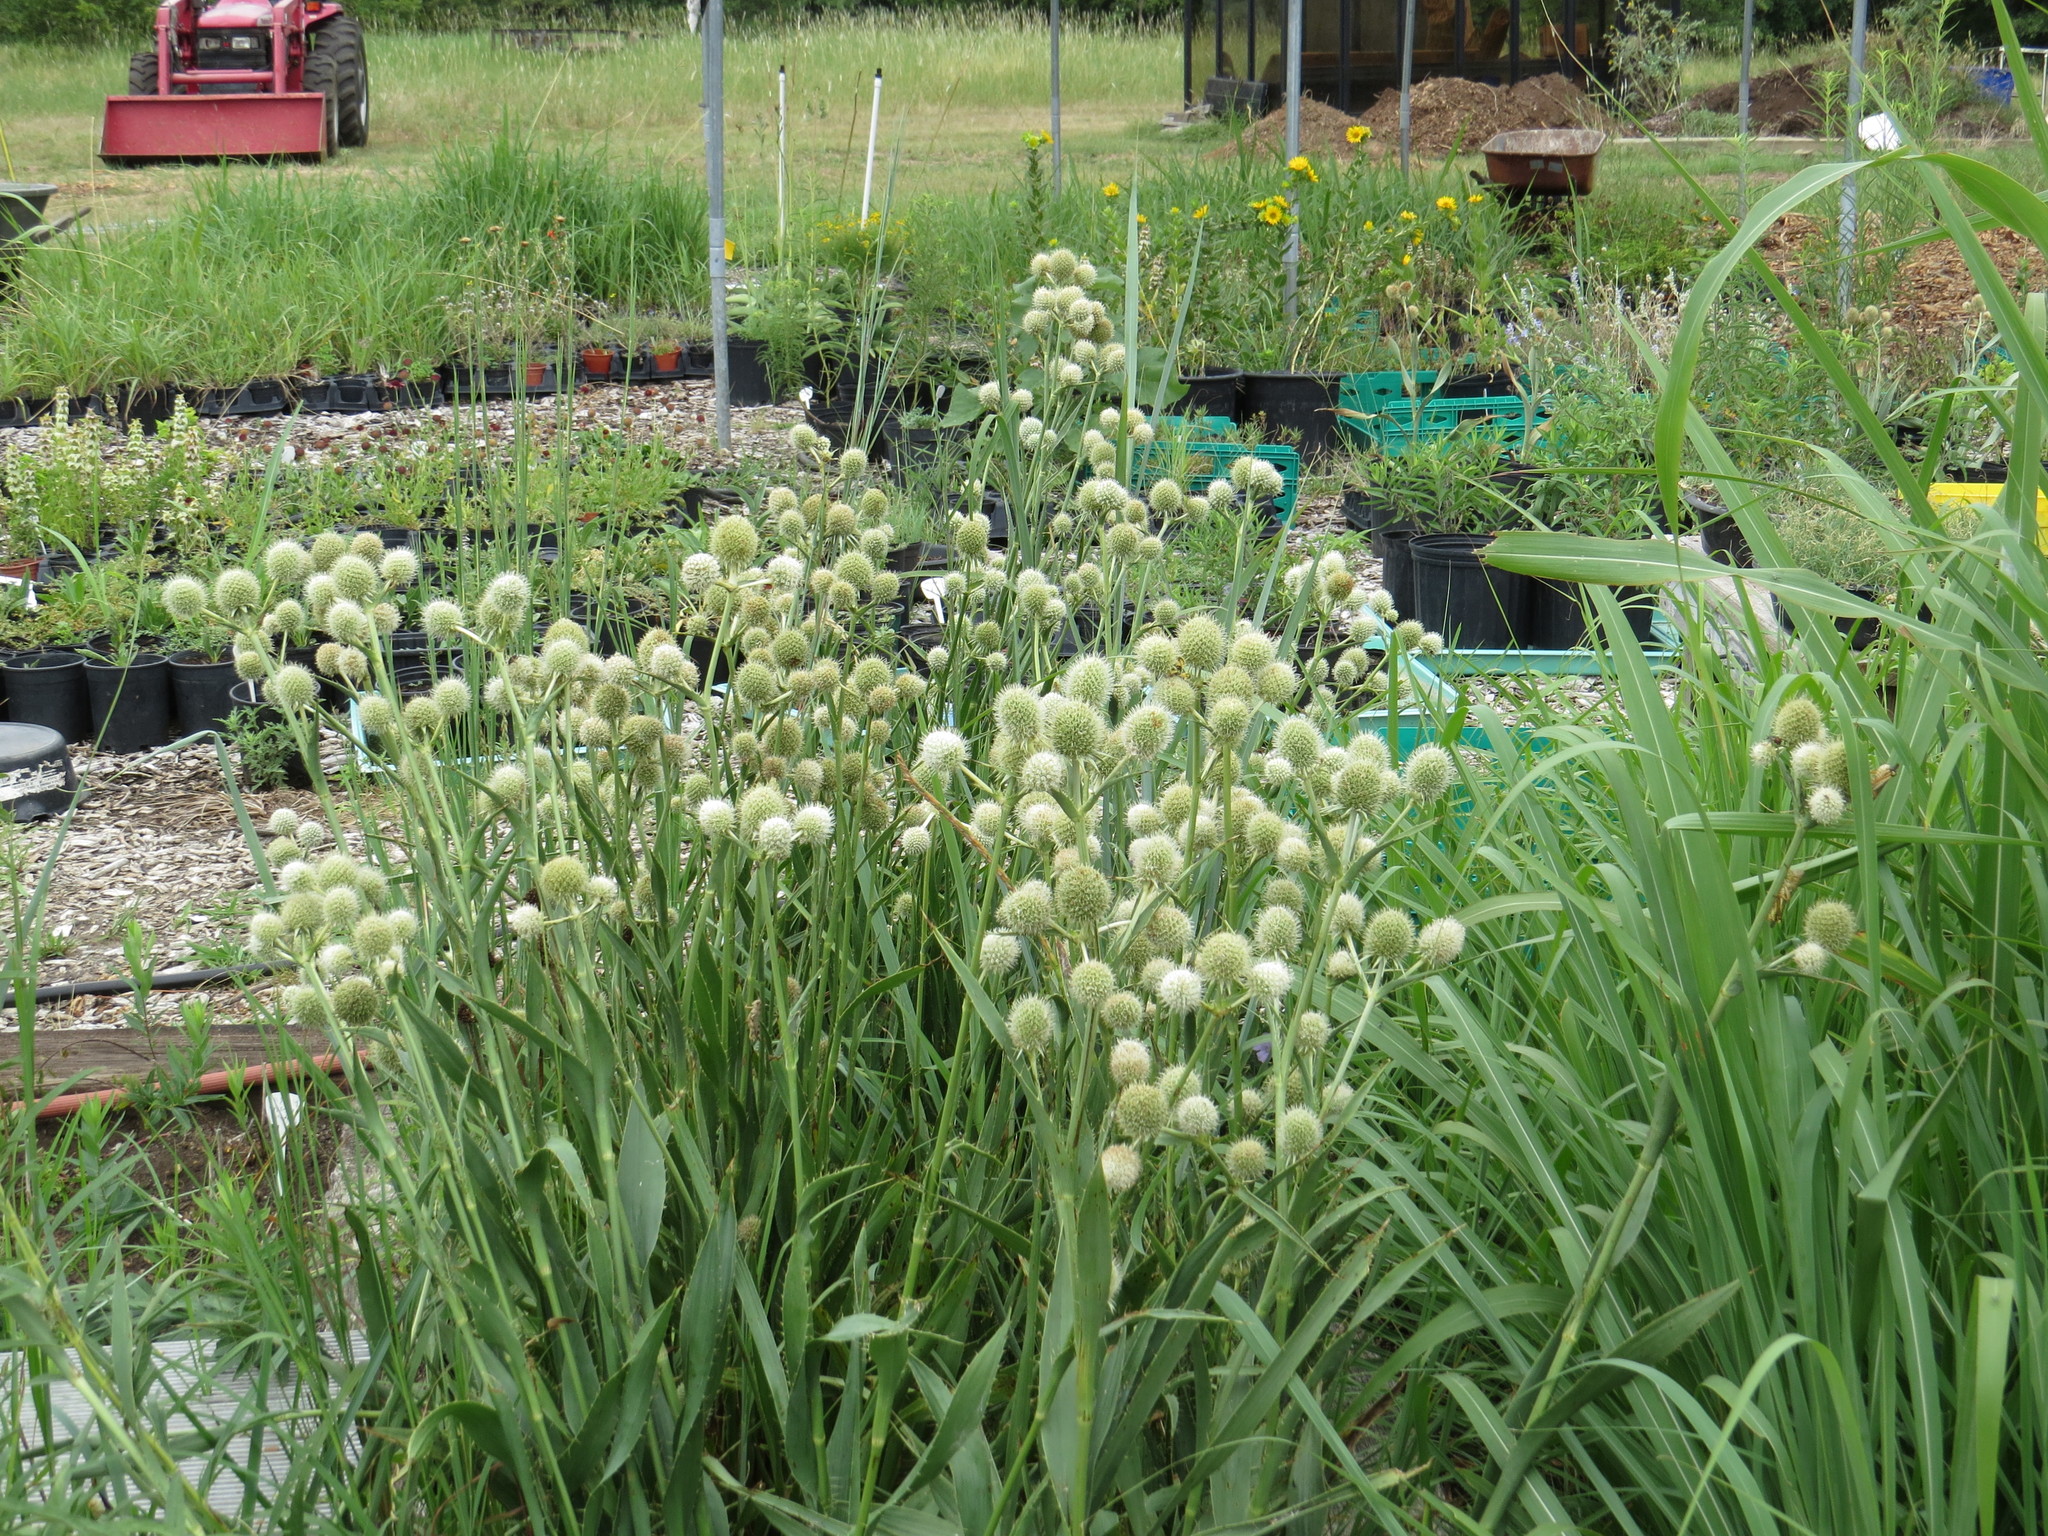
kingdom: Plantae
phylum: Tracheophyta
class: Magnoliopsida
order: Apiales
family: Apiaceae
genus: Eryngium
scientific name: Eryngium yuccifolium
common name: Button eryngo
